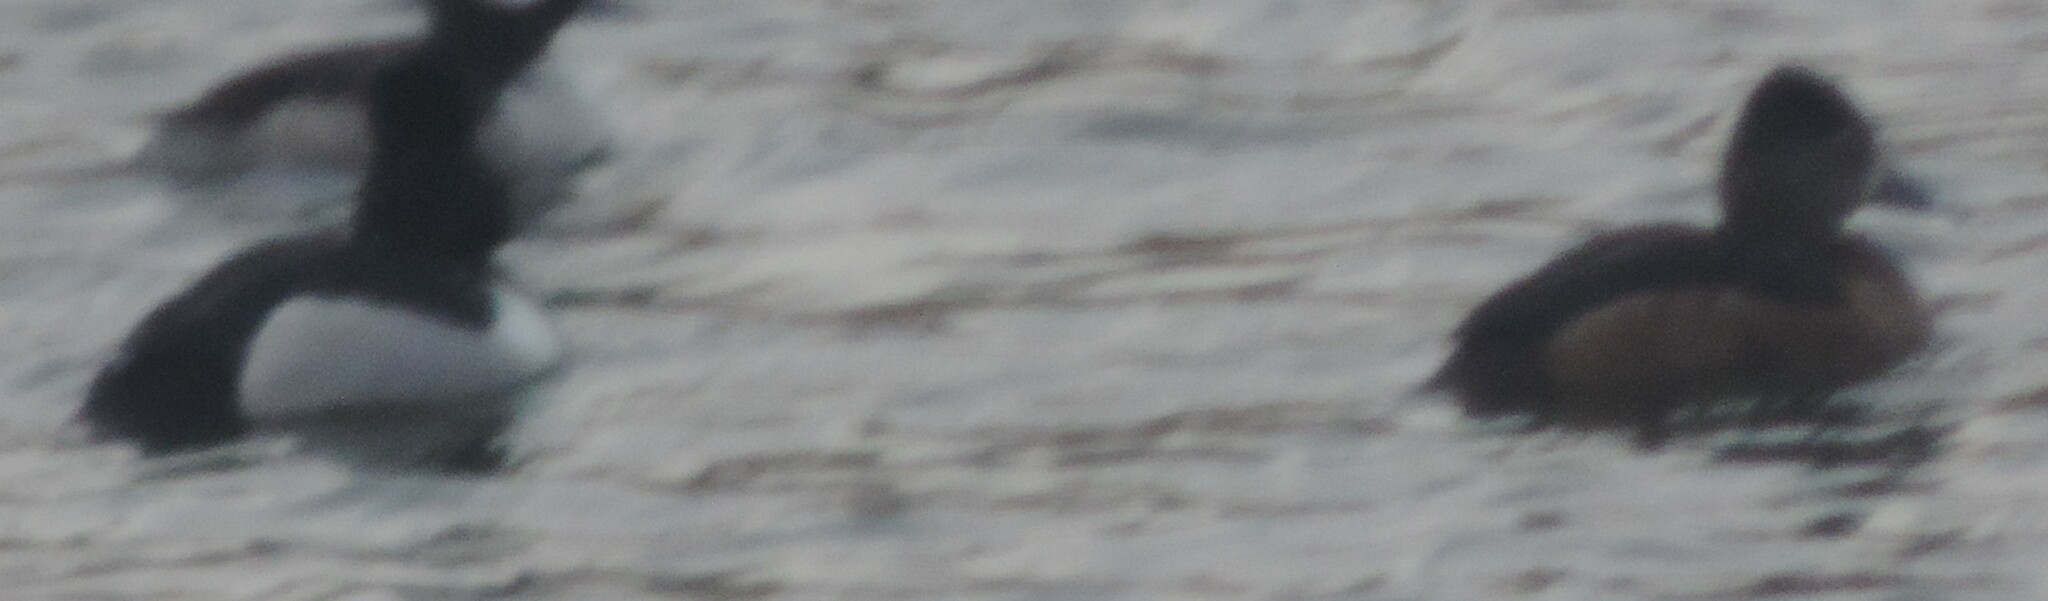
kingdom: Animalia
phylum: Chordata
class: Aves
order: Anseriformes
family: Anatidae
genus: Aythya
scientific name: Aythya collaris
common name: Ring-necked duck
